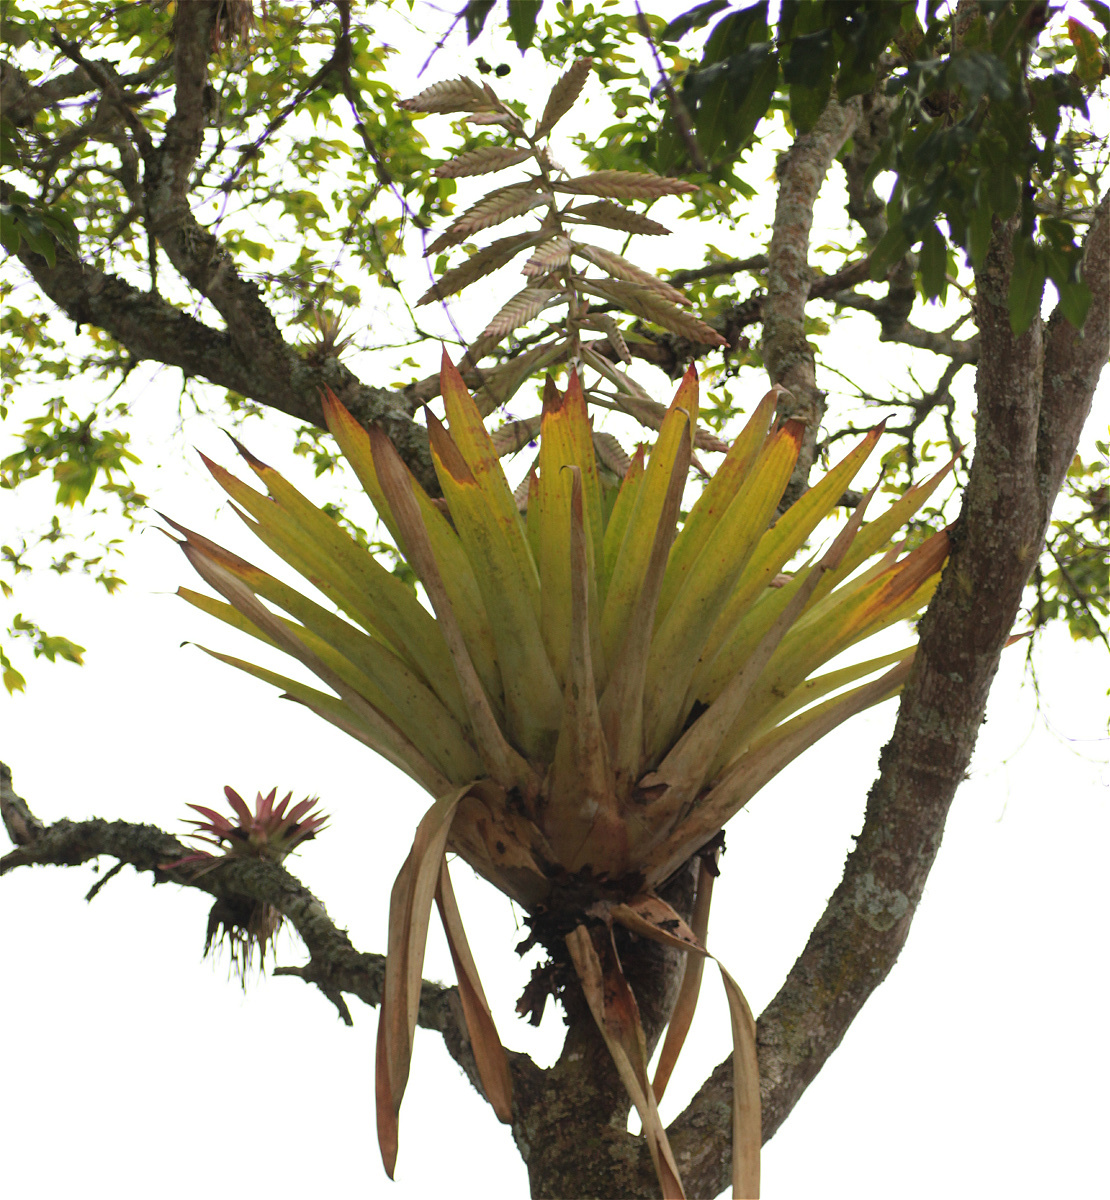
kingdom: Plantae
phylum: Tracheophyta
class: Liliopsida
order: Poales
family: Bromeliaceae
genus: Tillandsia
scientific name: Tillandsia fendleri
